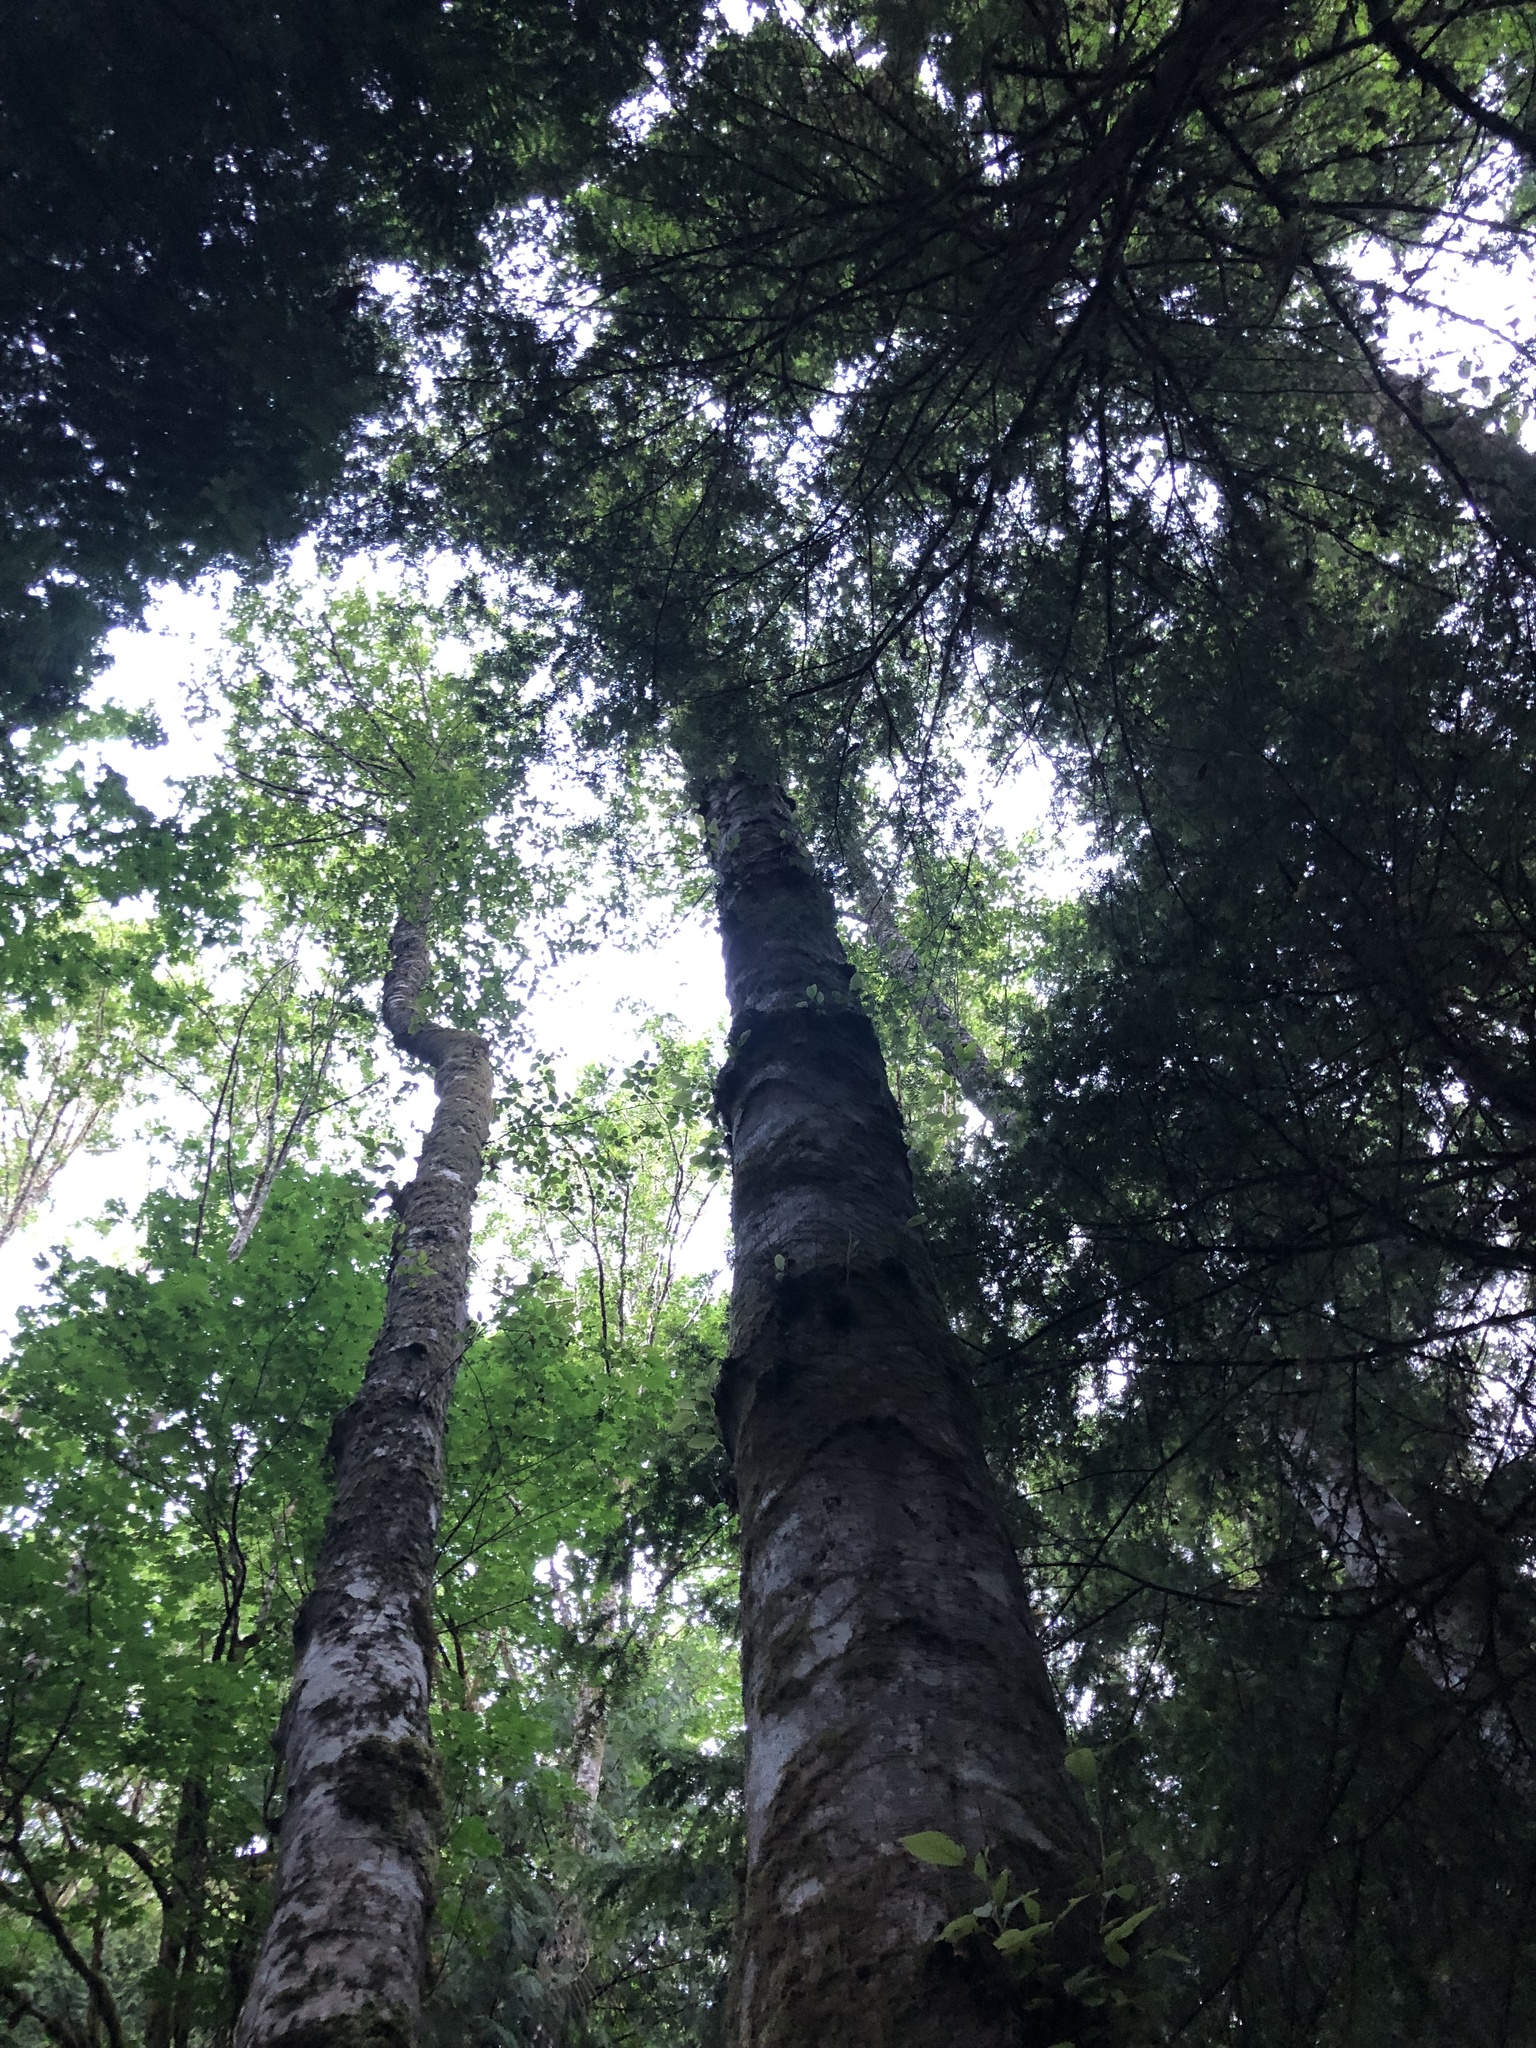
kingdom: Plantae
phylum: Tracheophyta
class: Magnoliopsida
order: Fagales
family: Betulaceae
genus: Alnus
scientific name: Alnus rubra
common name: Red alder
